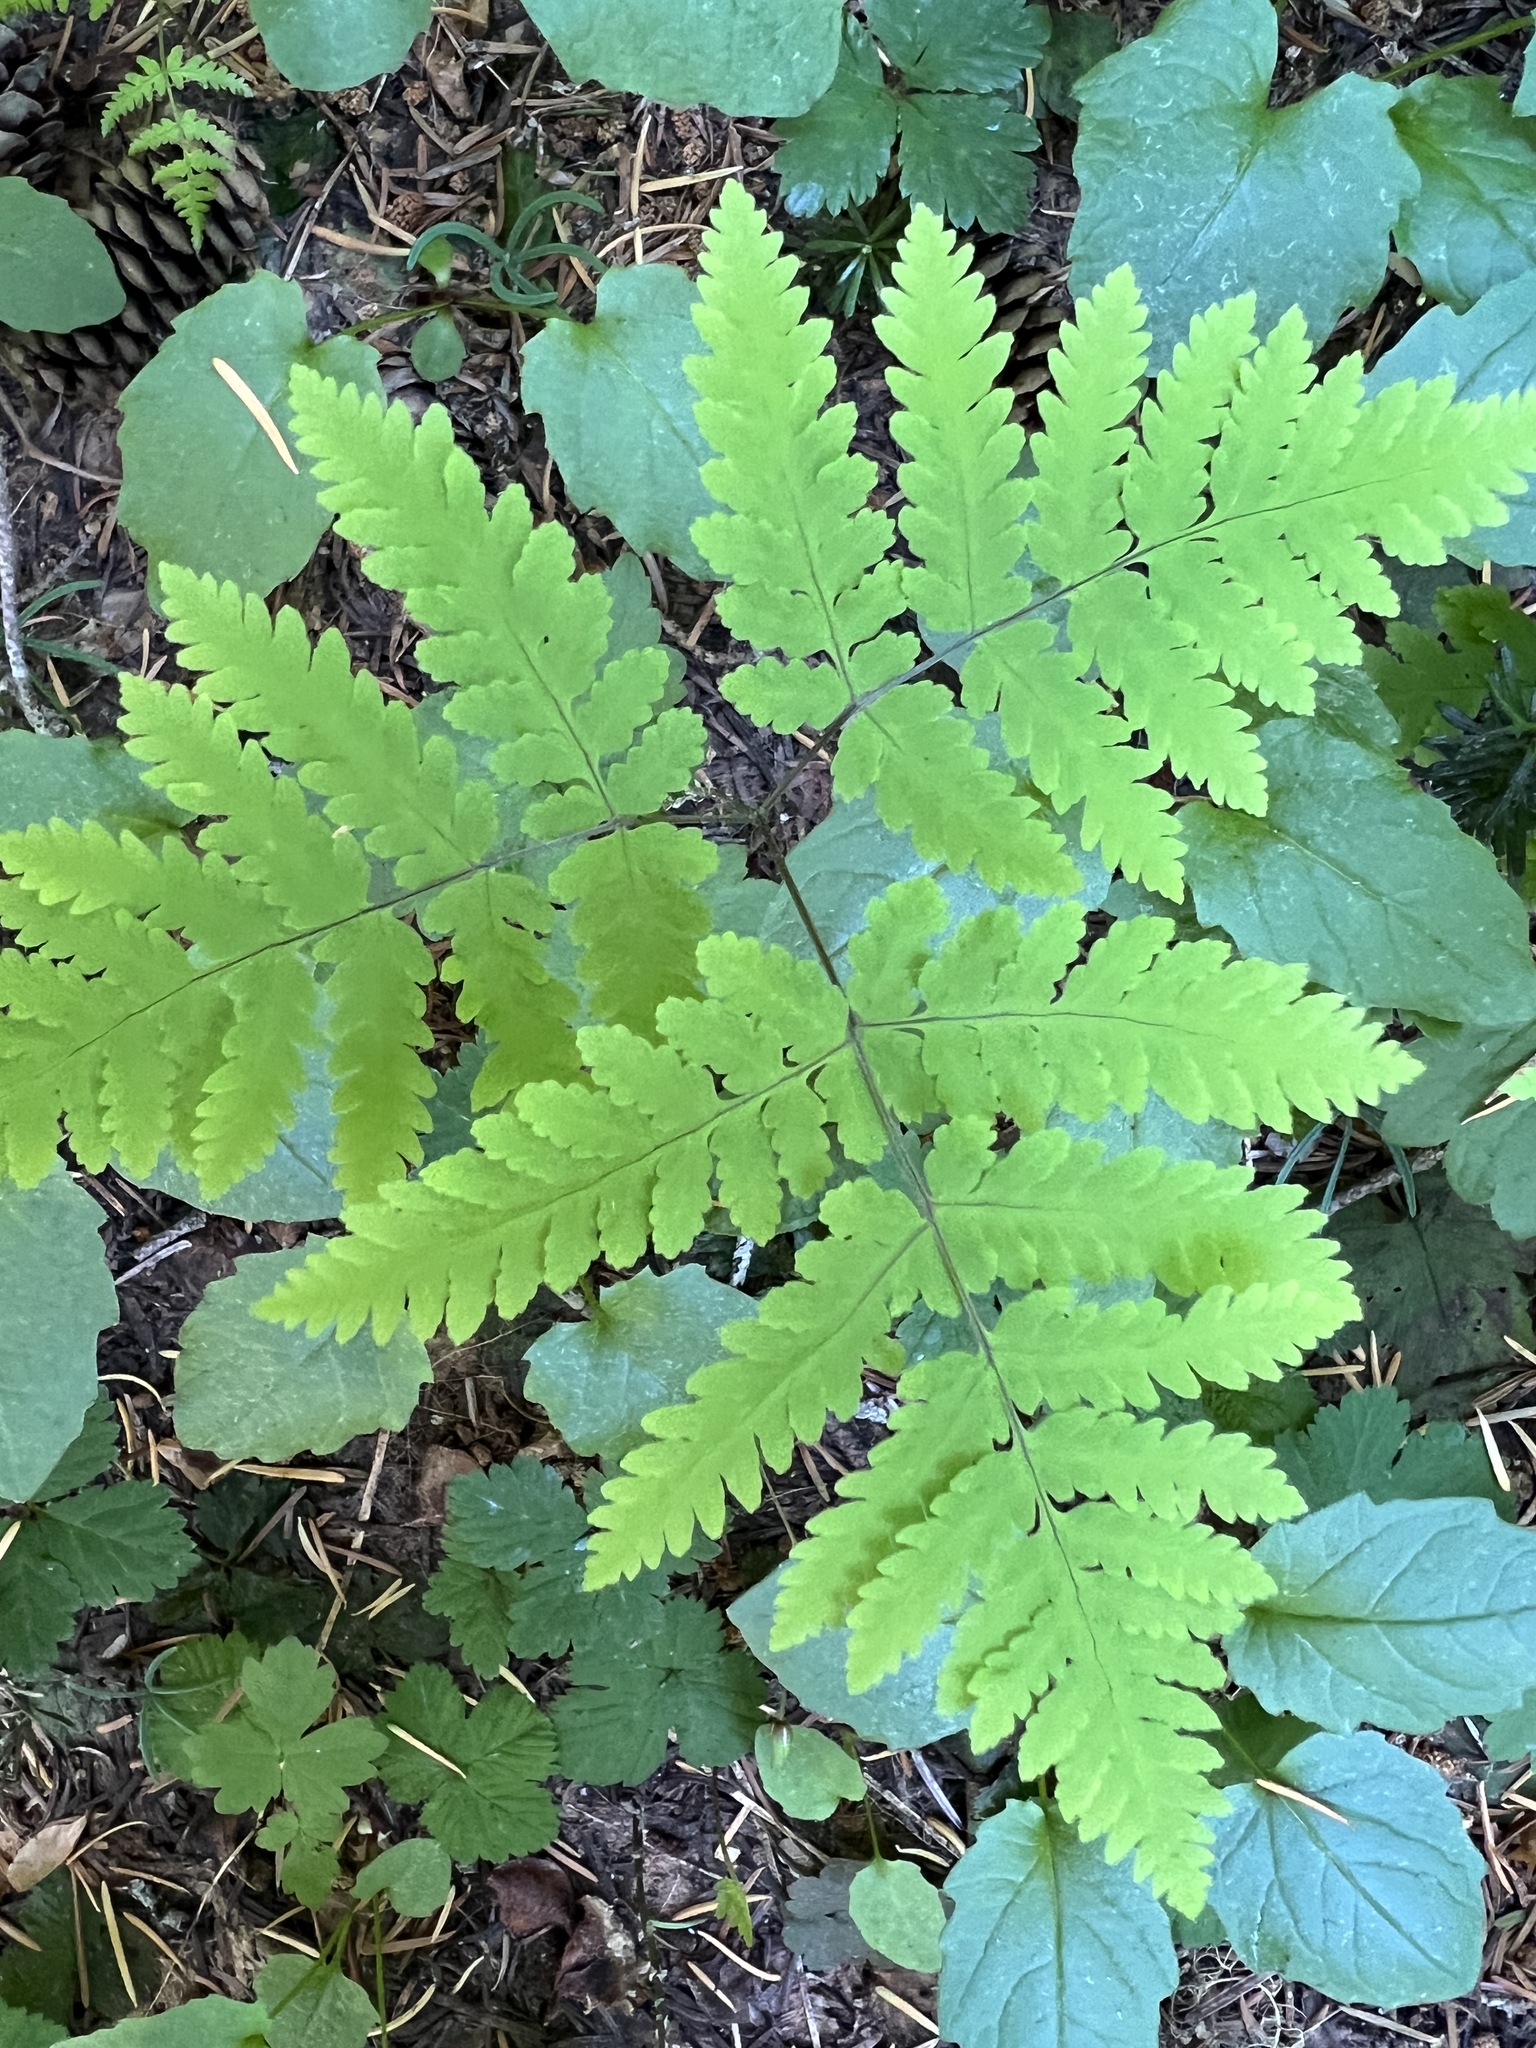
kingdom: Plantae
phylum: Tracheophyta
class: Polypodiopsida
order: Polypodiales
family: Cystopteridaceae
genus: Gymnocarpium
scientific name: Gymnocarpium disjunctum
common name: Western oak fern
